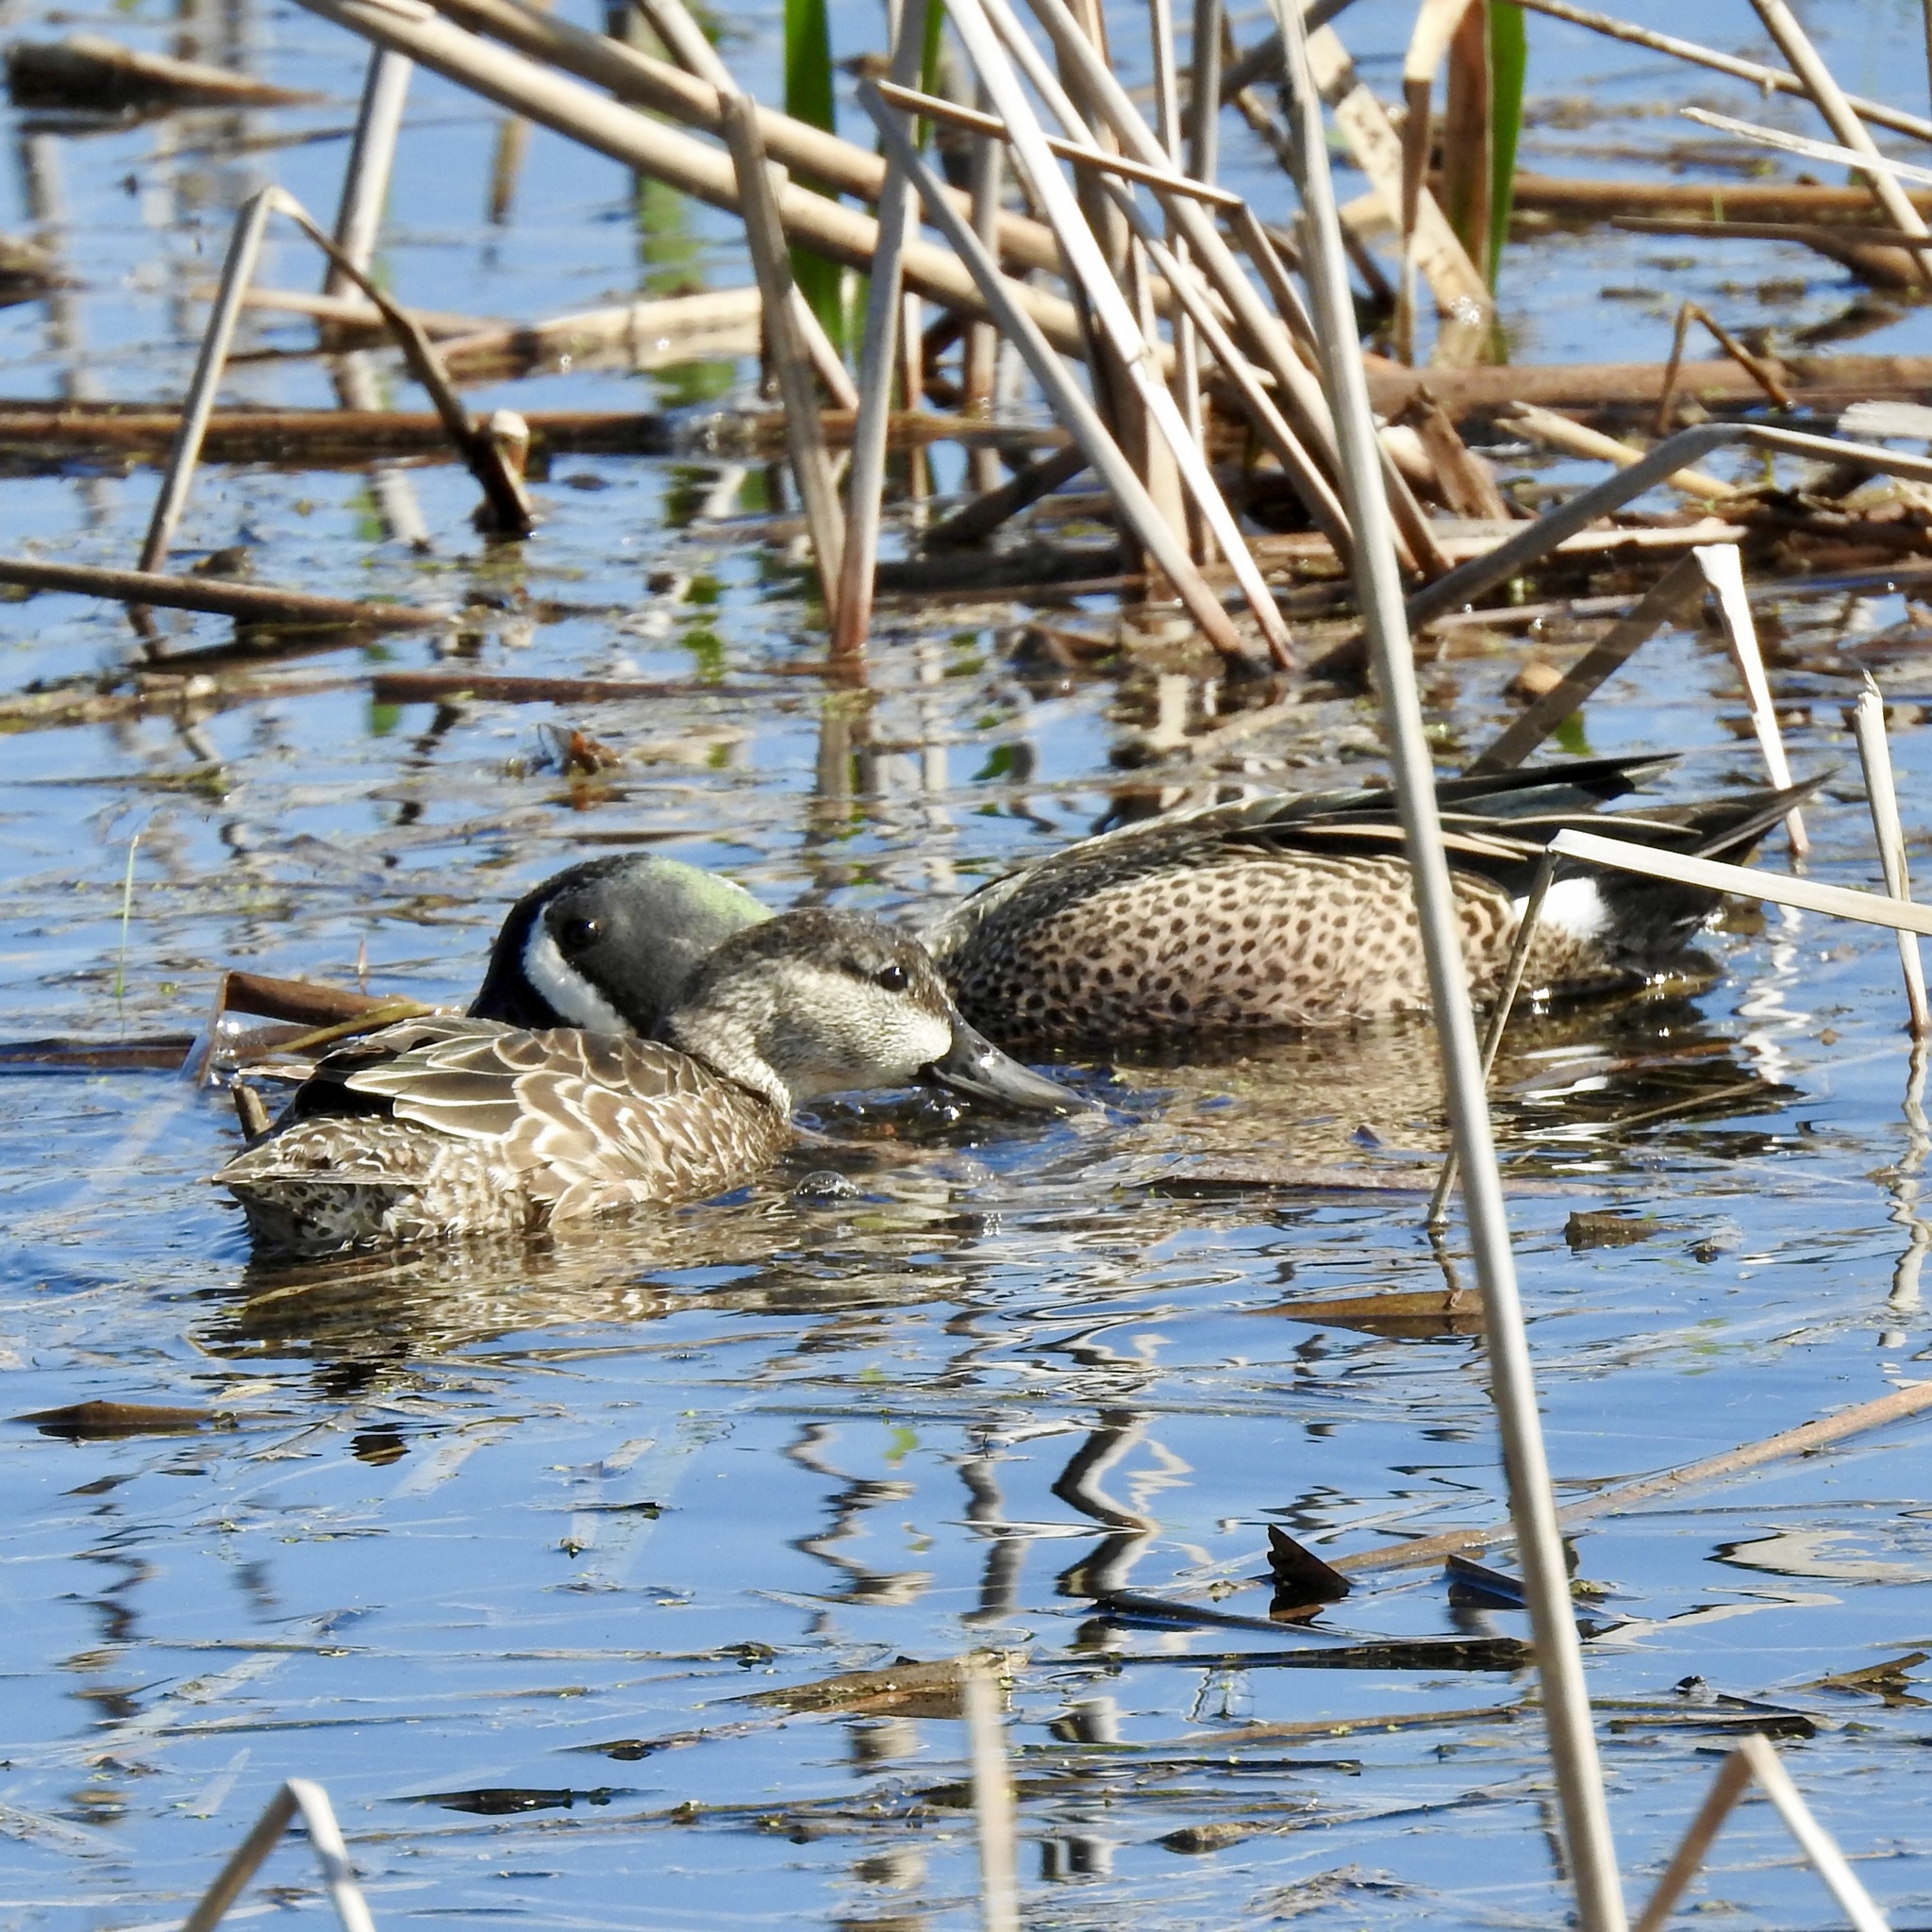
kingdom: Animalia
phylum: Chordata
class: Aves
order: Anseriformes
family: Anatidae
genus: Spatula
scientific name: Spatula discors
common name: Blue-winged teal
